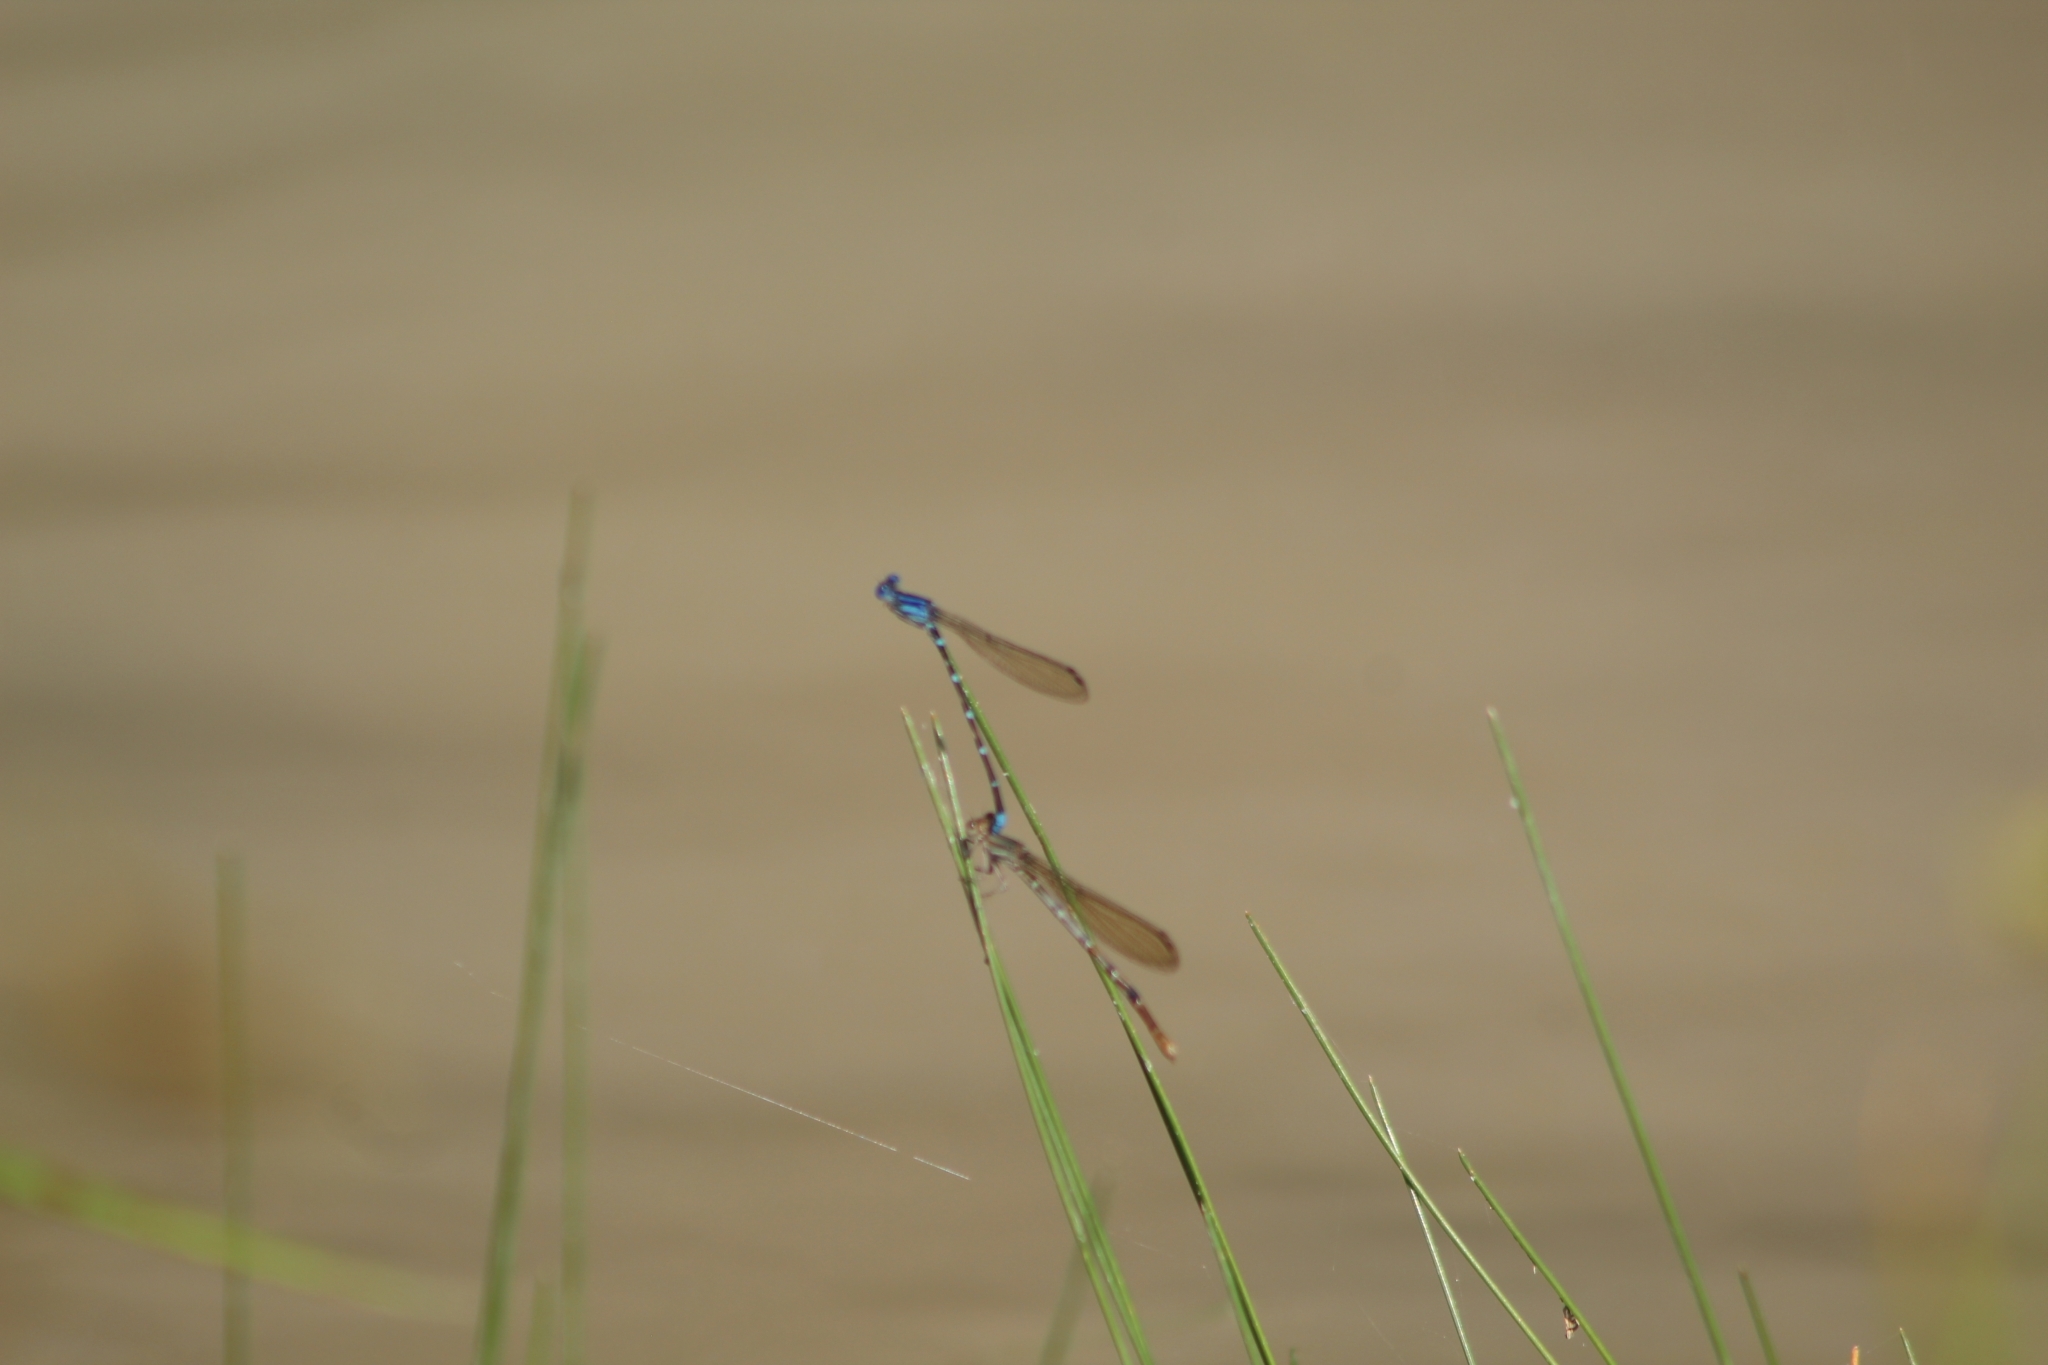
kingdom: Animalia
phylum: Arthropoda
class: Insecta
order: Odonata
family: Coenagrionidae
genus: Argia
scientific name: Argia sedula
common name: Blue-ringed dancer
